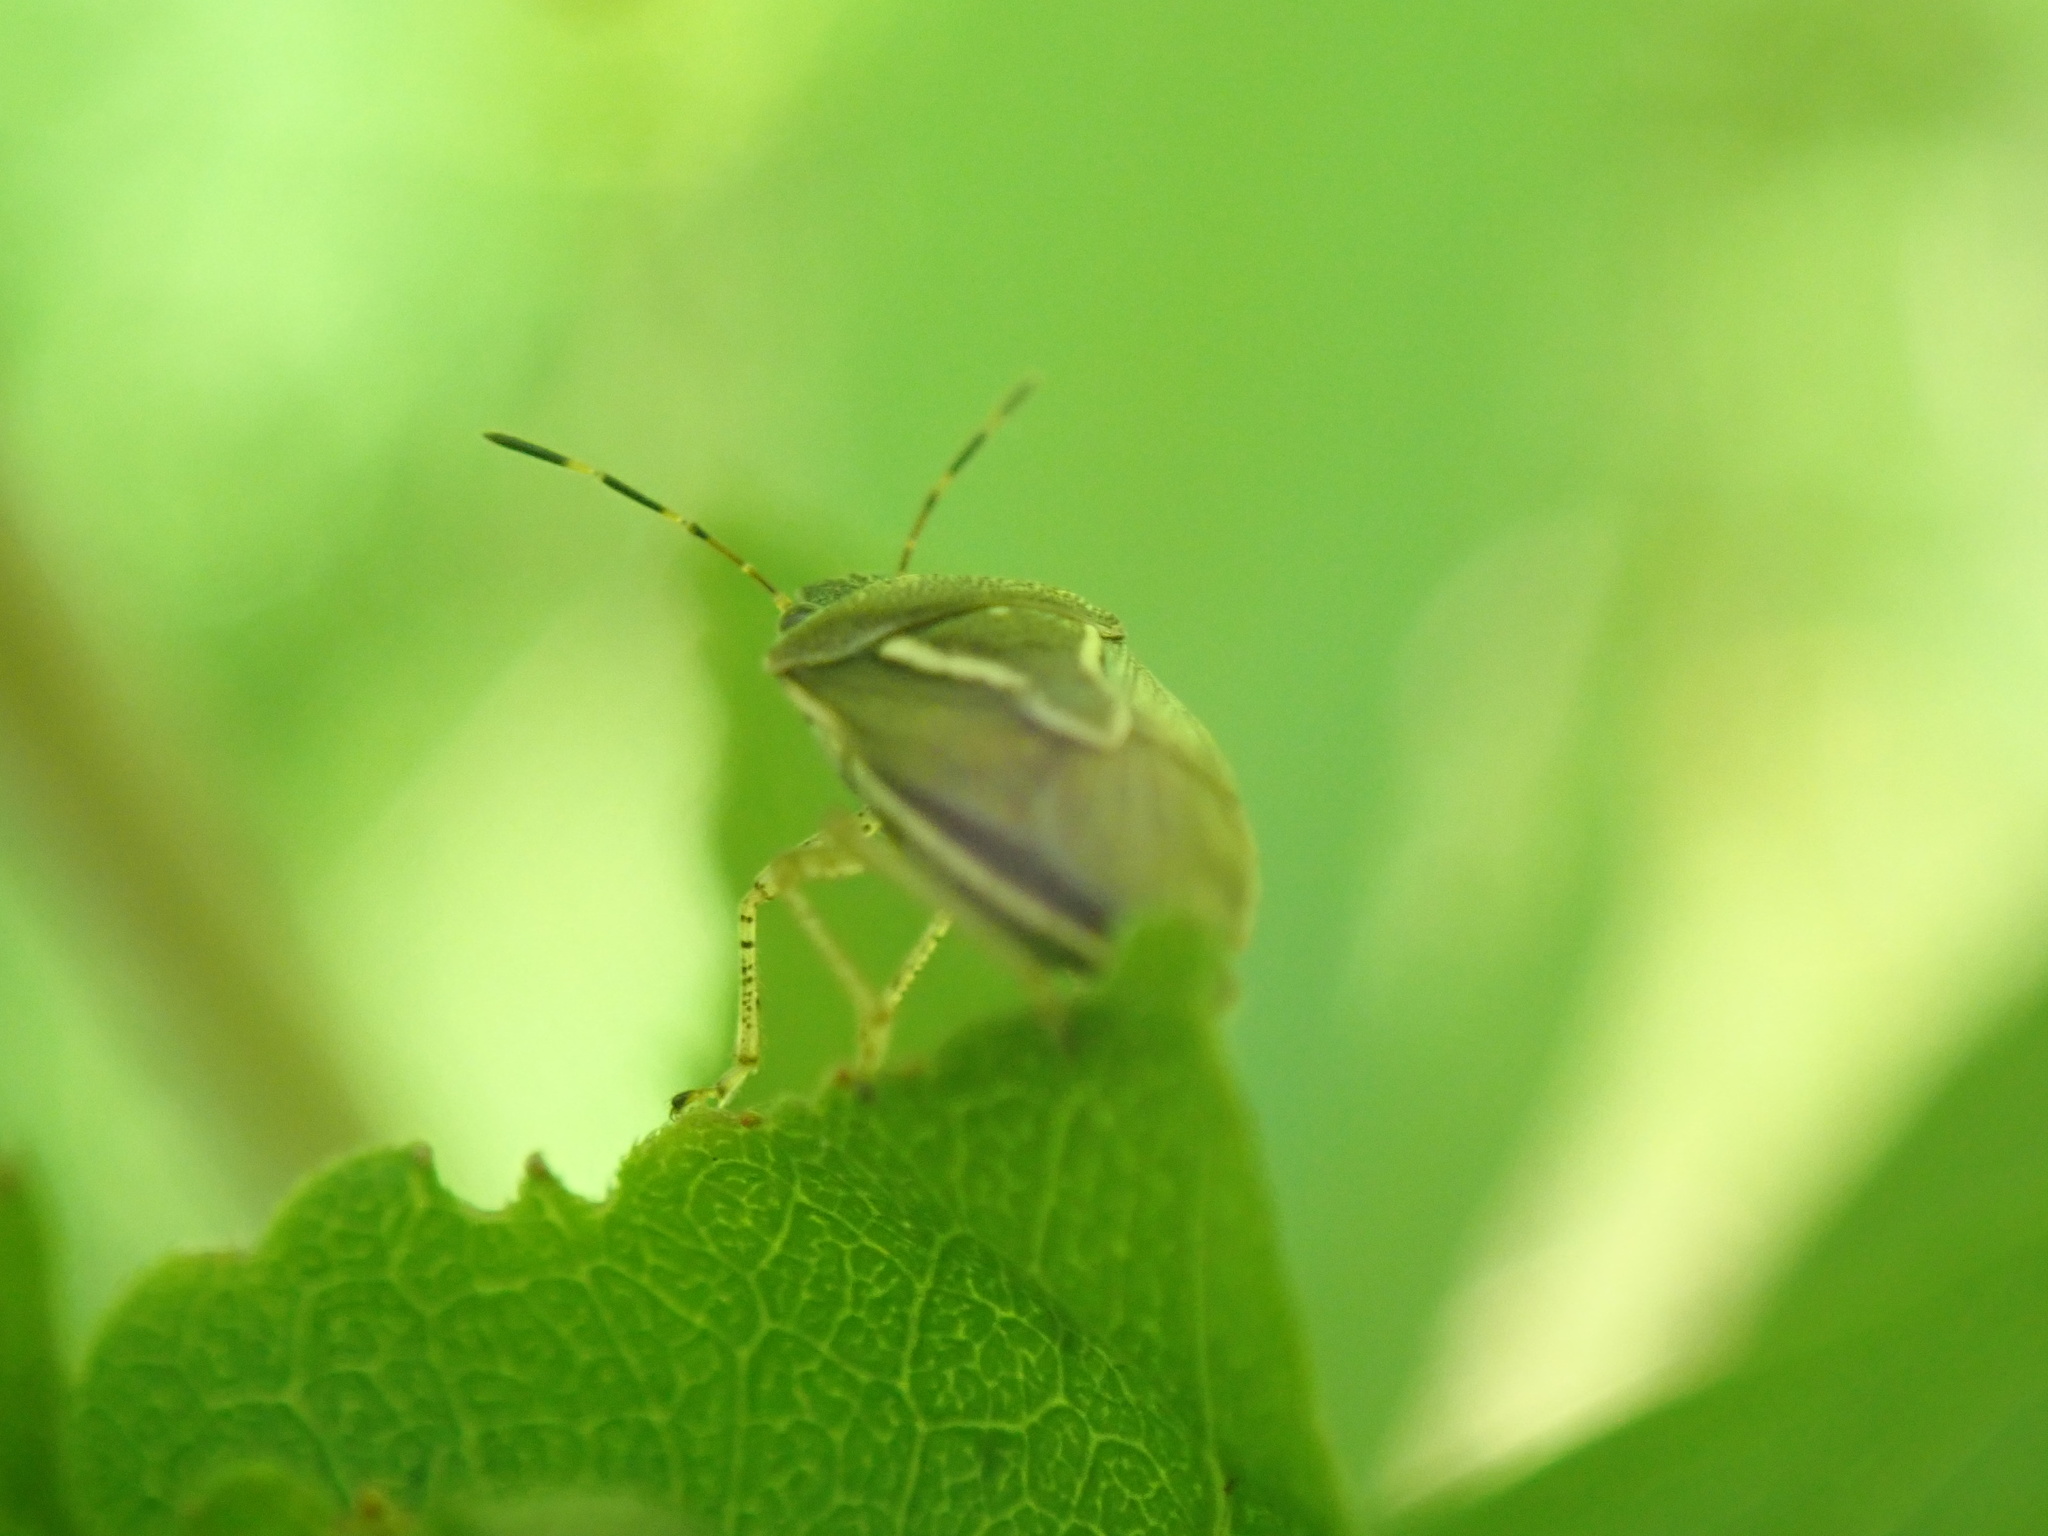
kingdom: Animalia
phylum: Arthropoda
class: Insecta
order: Hemiptera
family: Pentatomidae
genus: Mormidea
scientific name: Mormidea lugens
